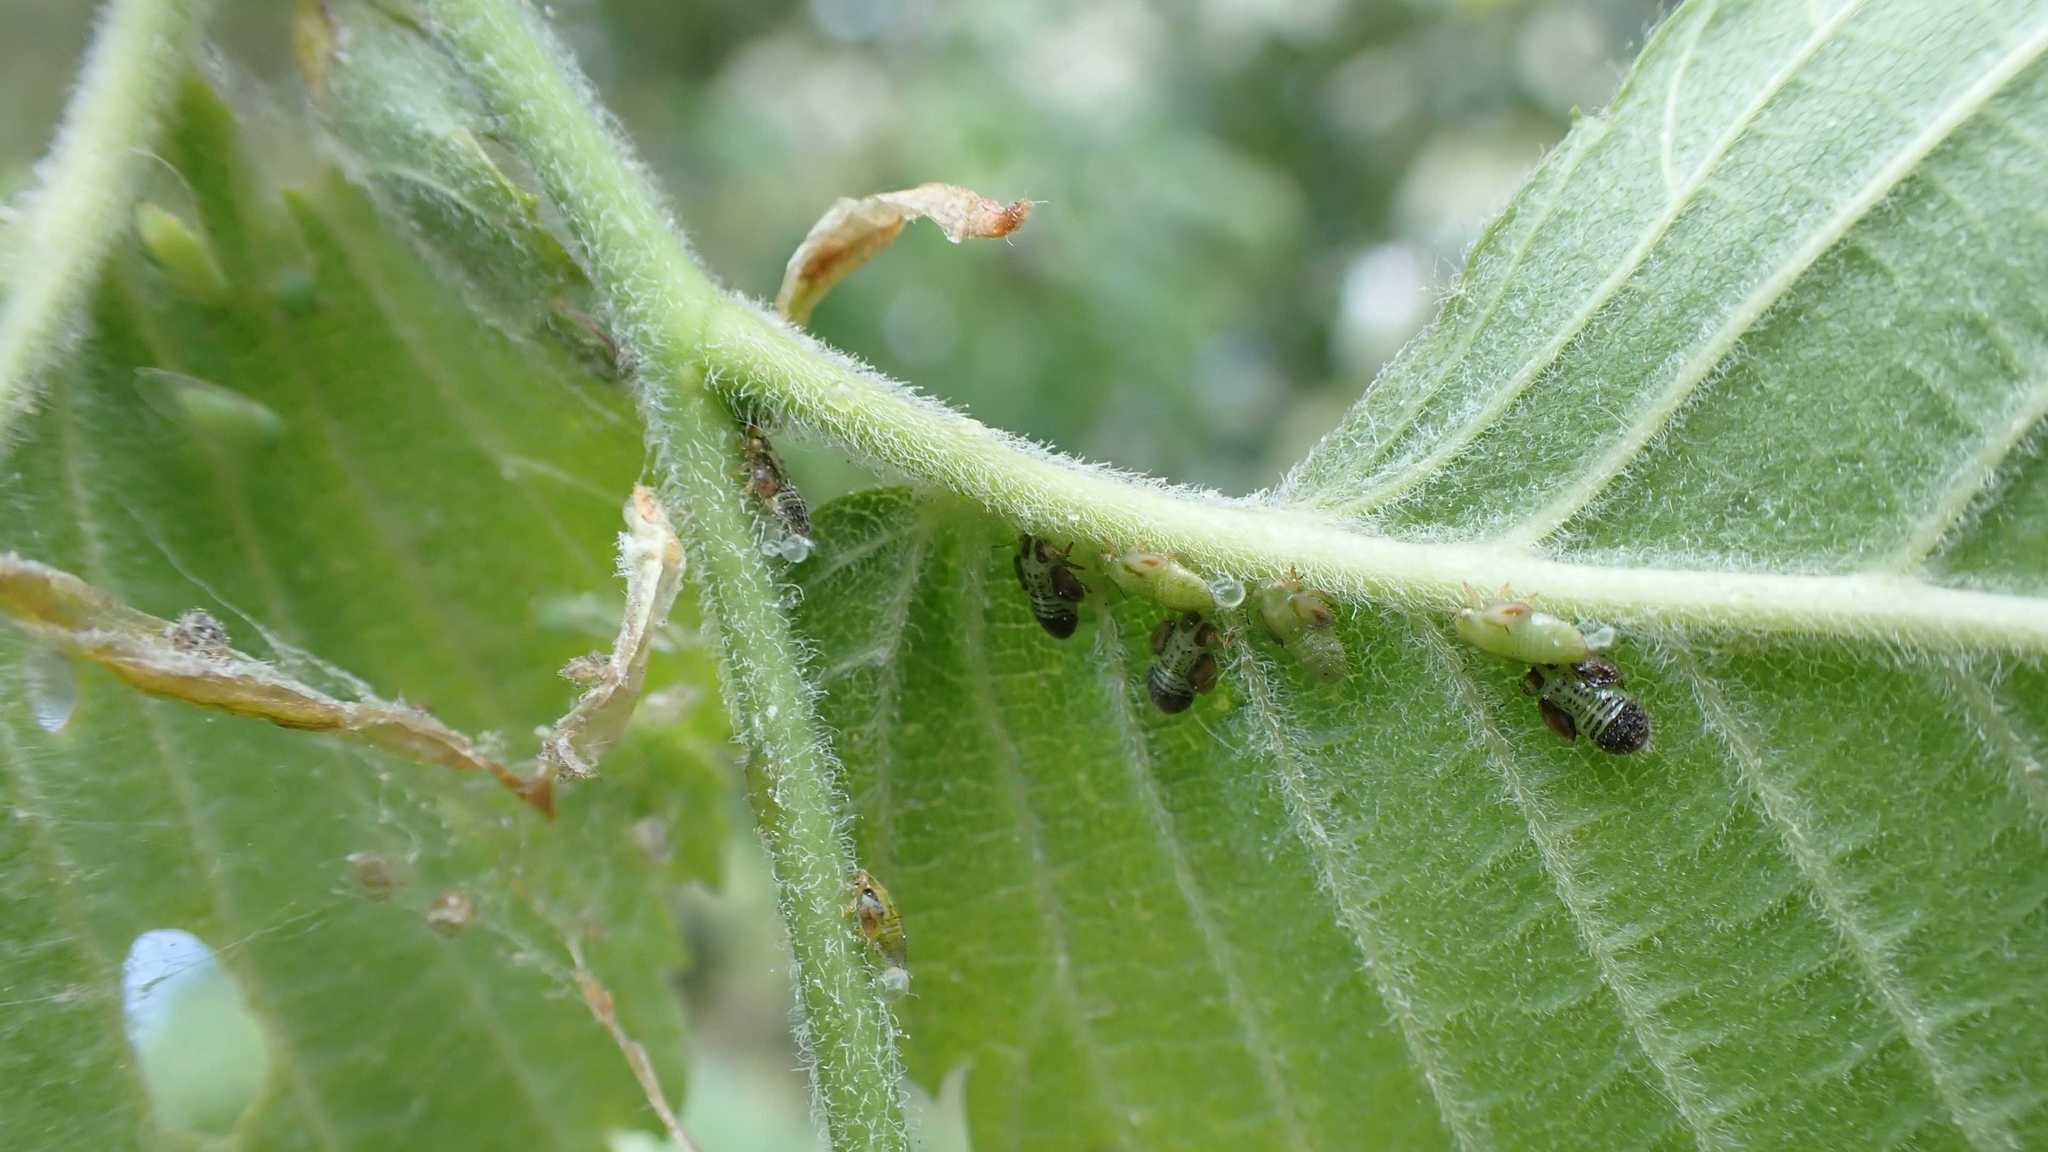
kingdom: Animalia
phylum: Arthropoda
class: Insecta
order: Hemiptera
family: Psyllidae
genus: Cacopsylla
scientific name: Cacopsylla ulmi
